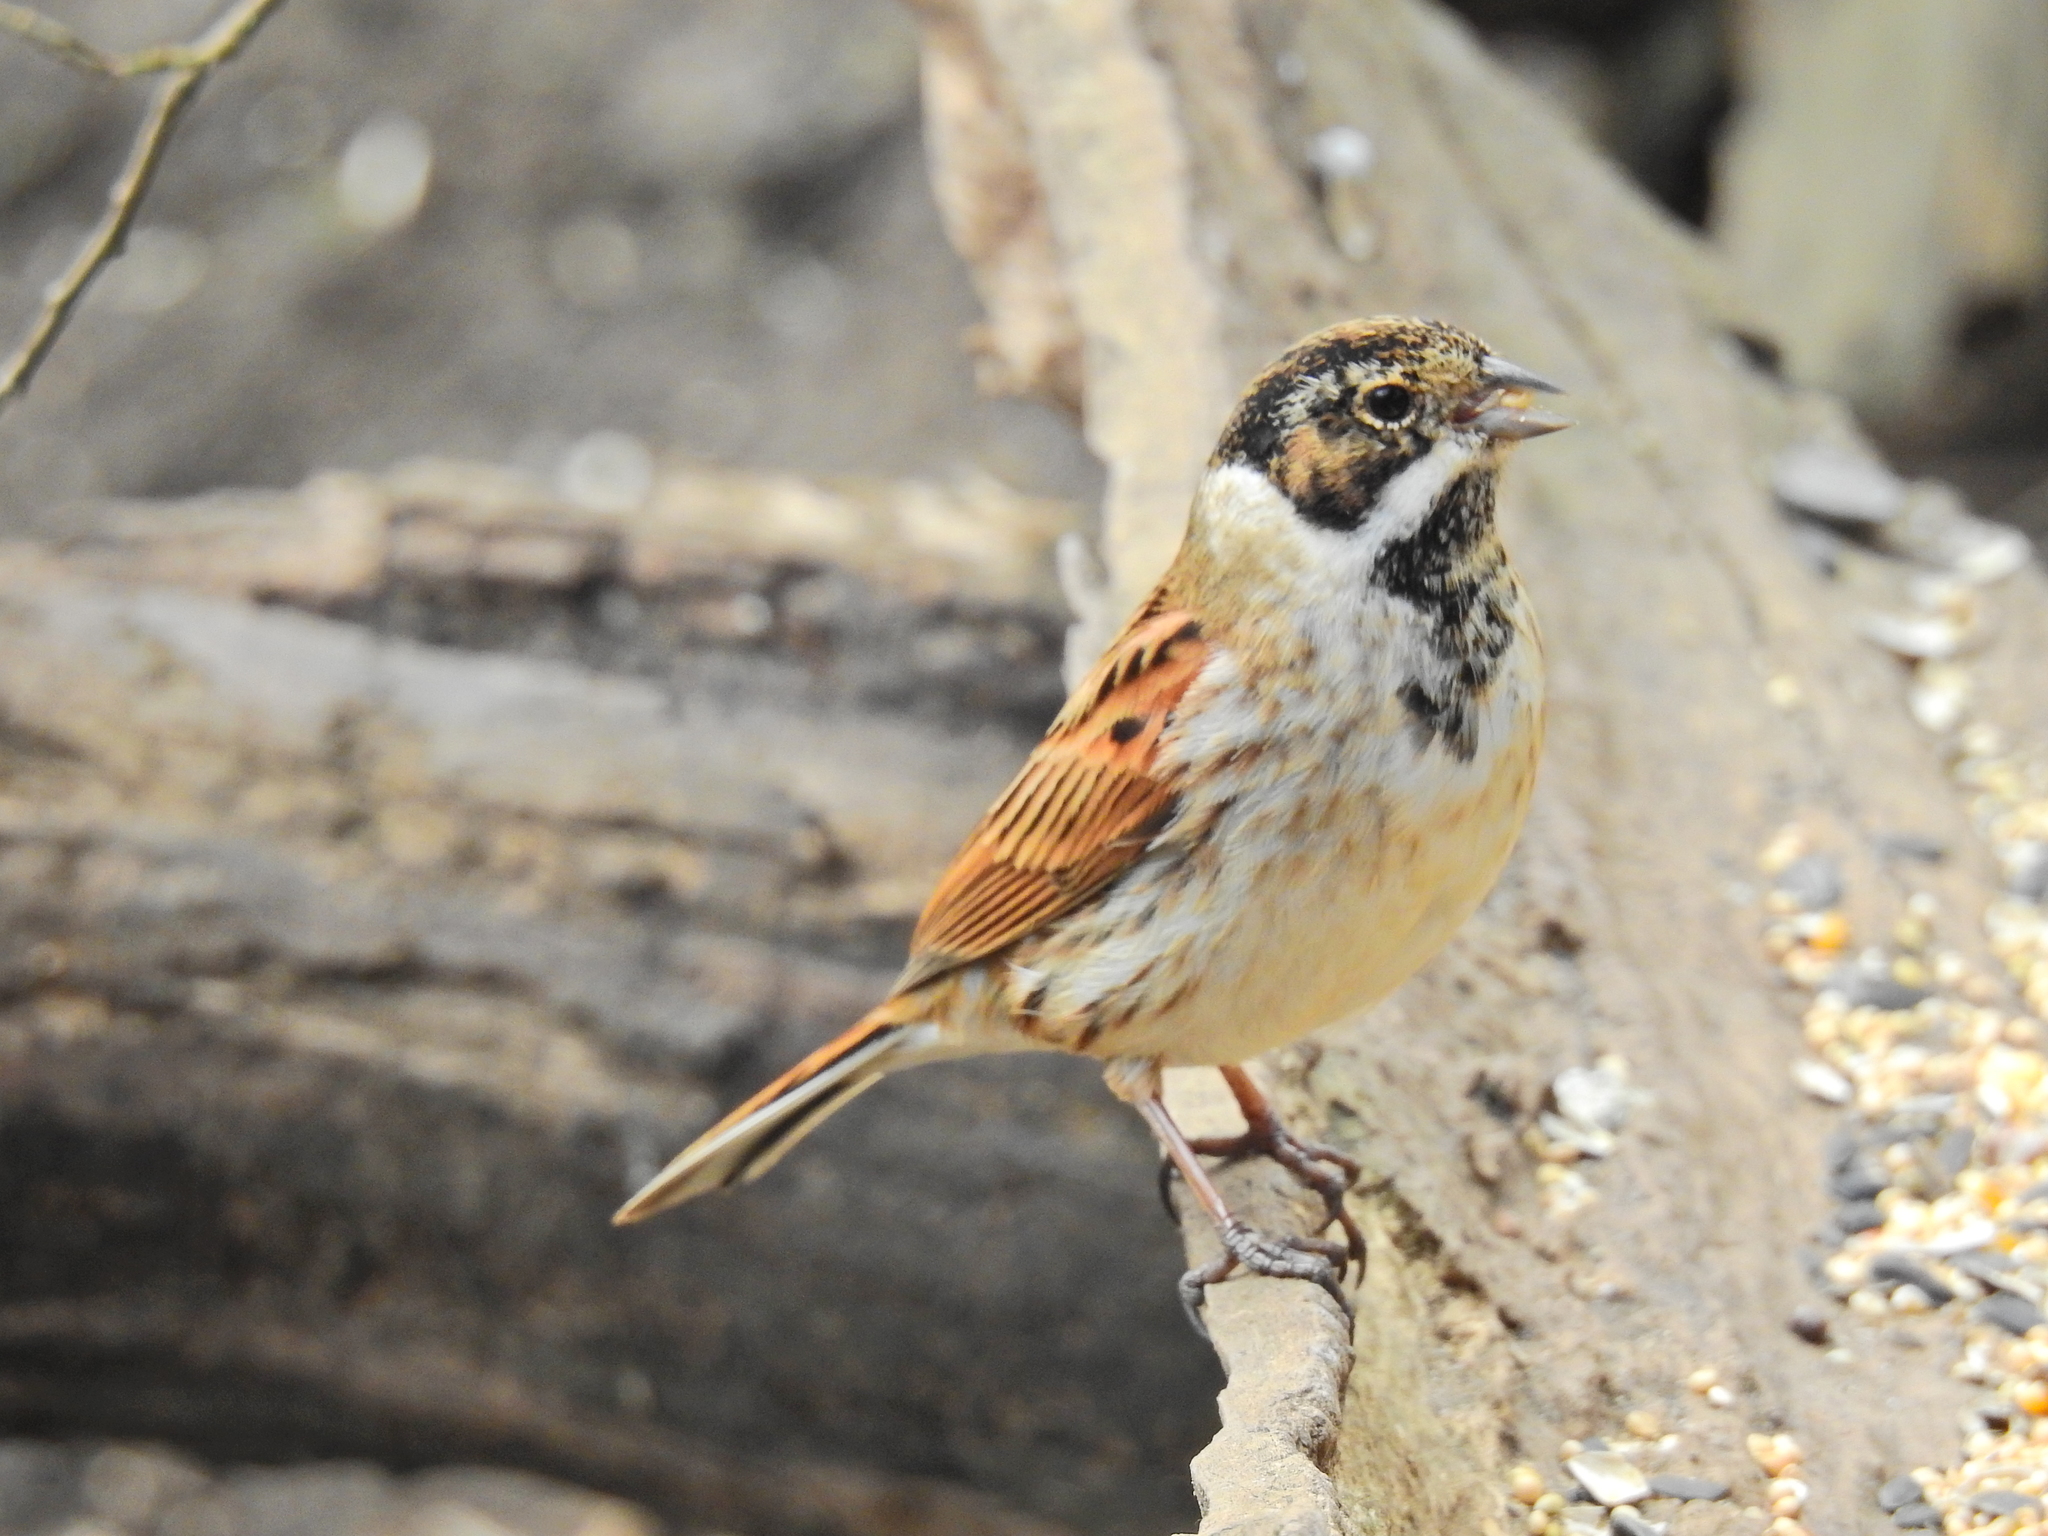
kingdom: Animalia
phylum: Chordata
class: Aves
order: Passeriformes
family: Emberizidae
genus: Emberiza
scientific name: Emberiza schoeniclus
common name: Reed bunting
